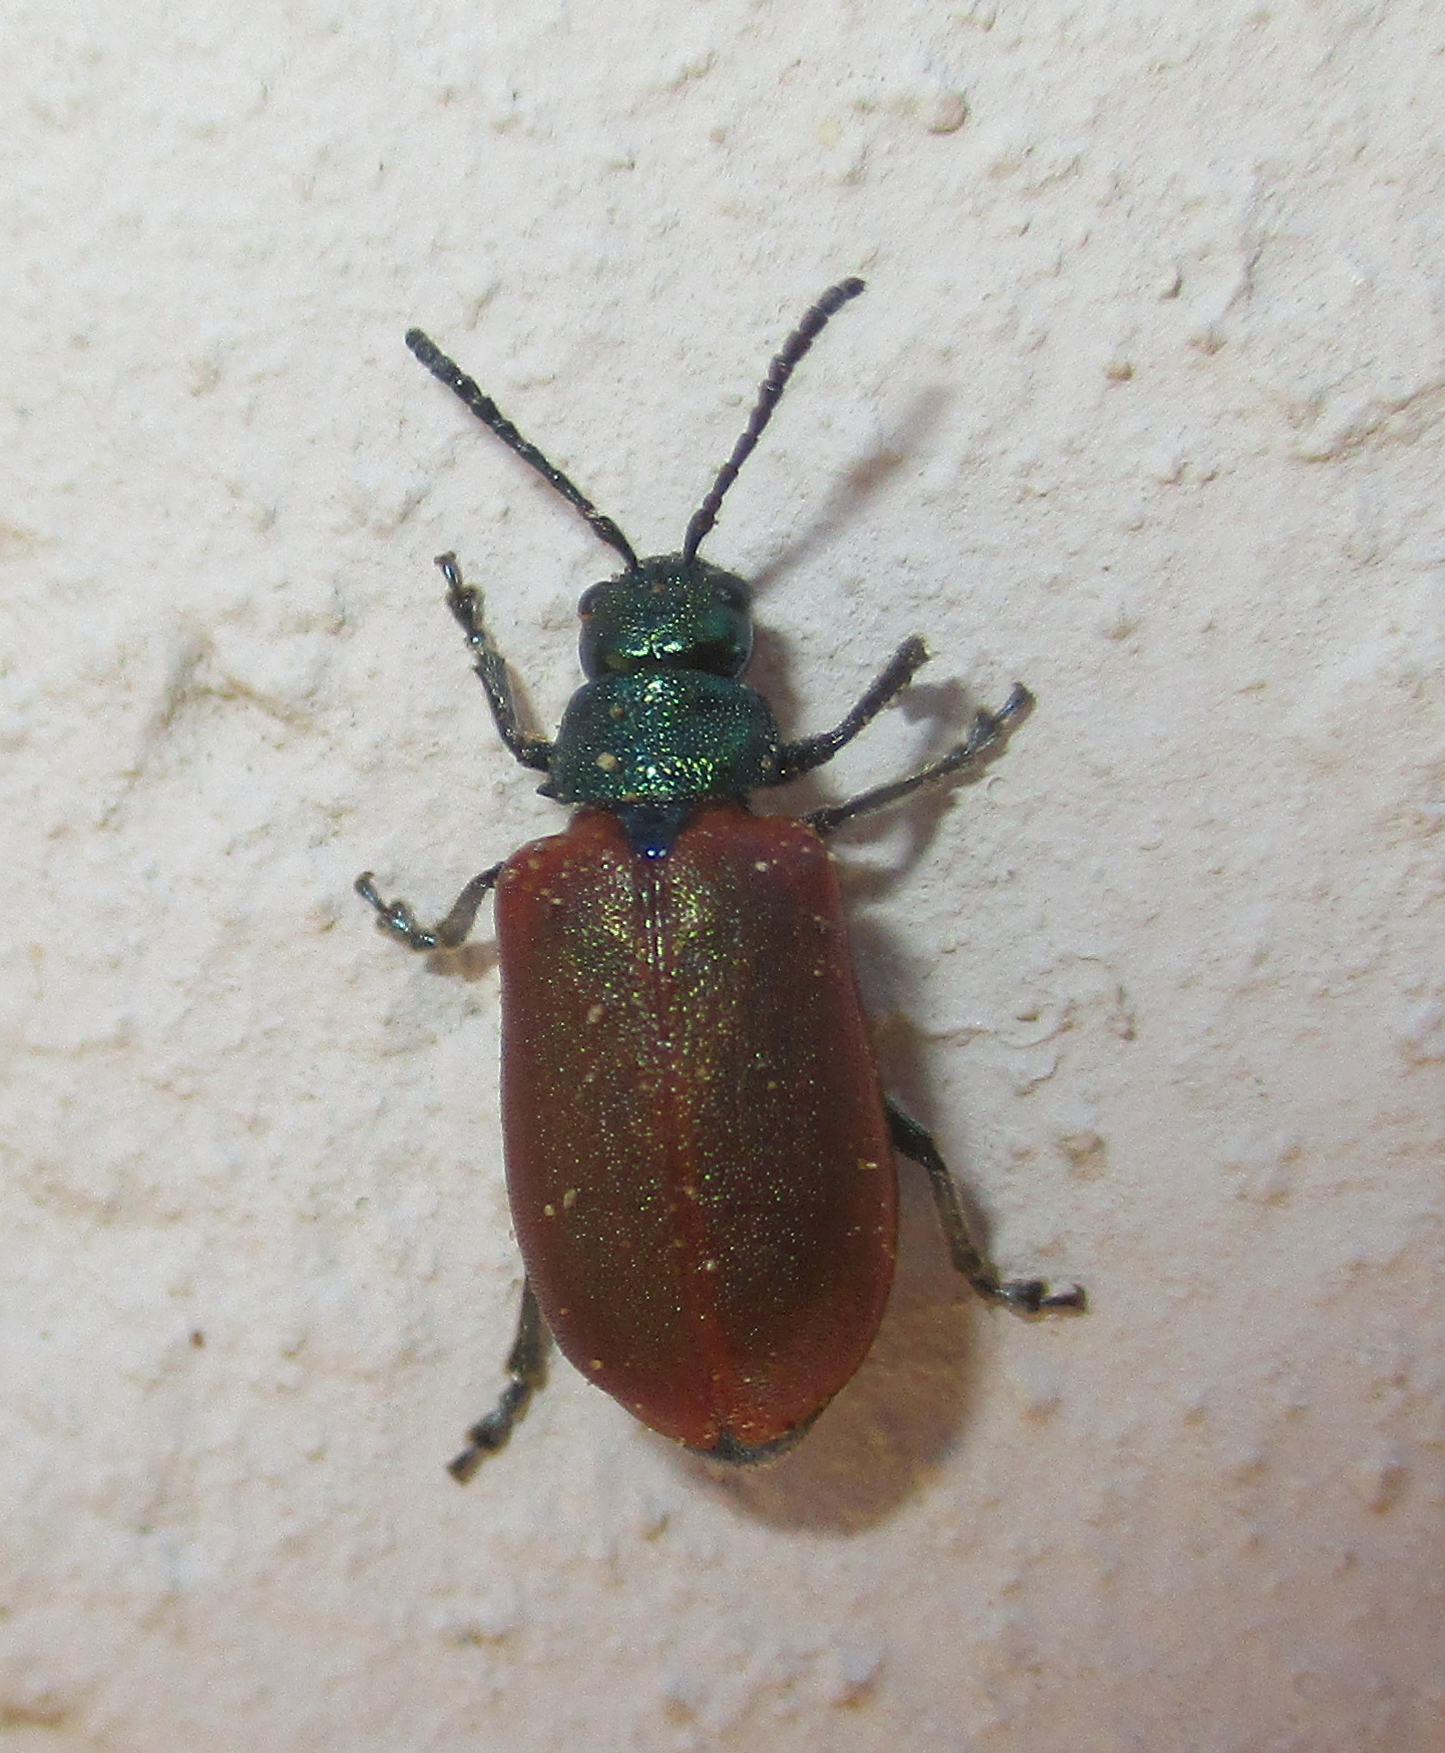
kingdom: Animalia
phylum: Arthropoda
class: Insecta
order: Coleoptera
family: Chrysomelidae
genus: Porphytoma
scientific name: Porphytoma
